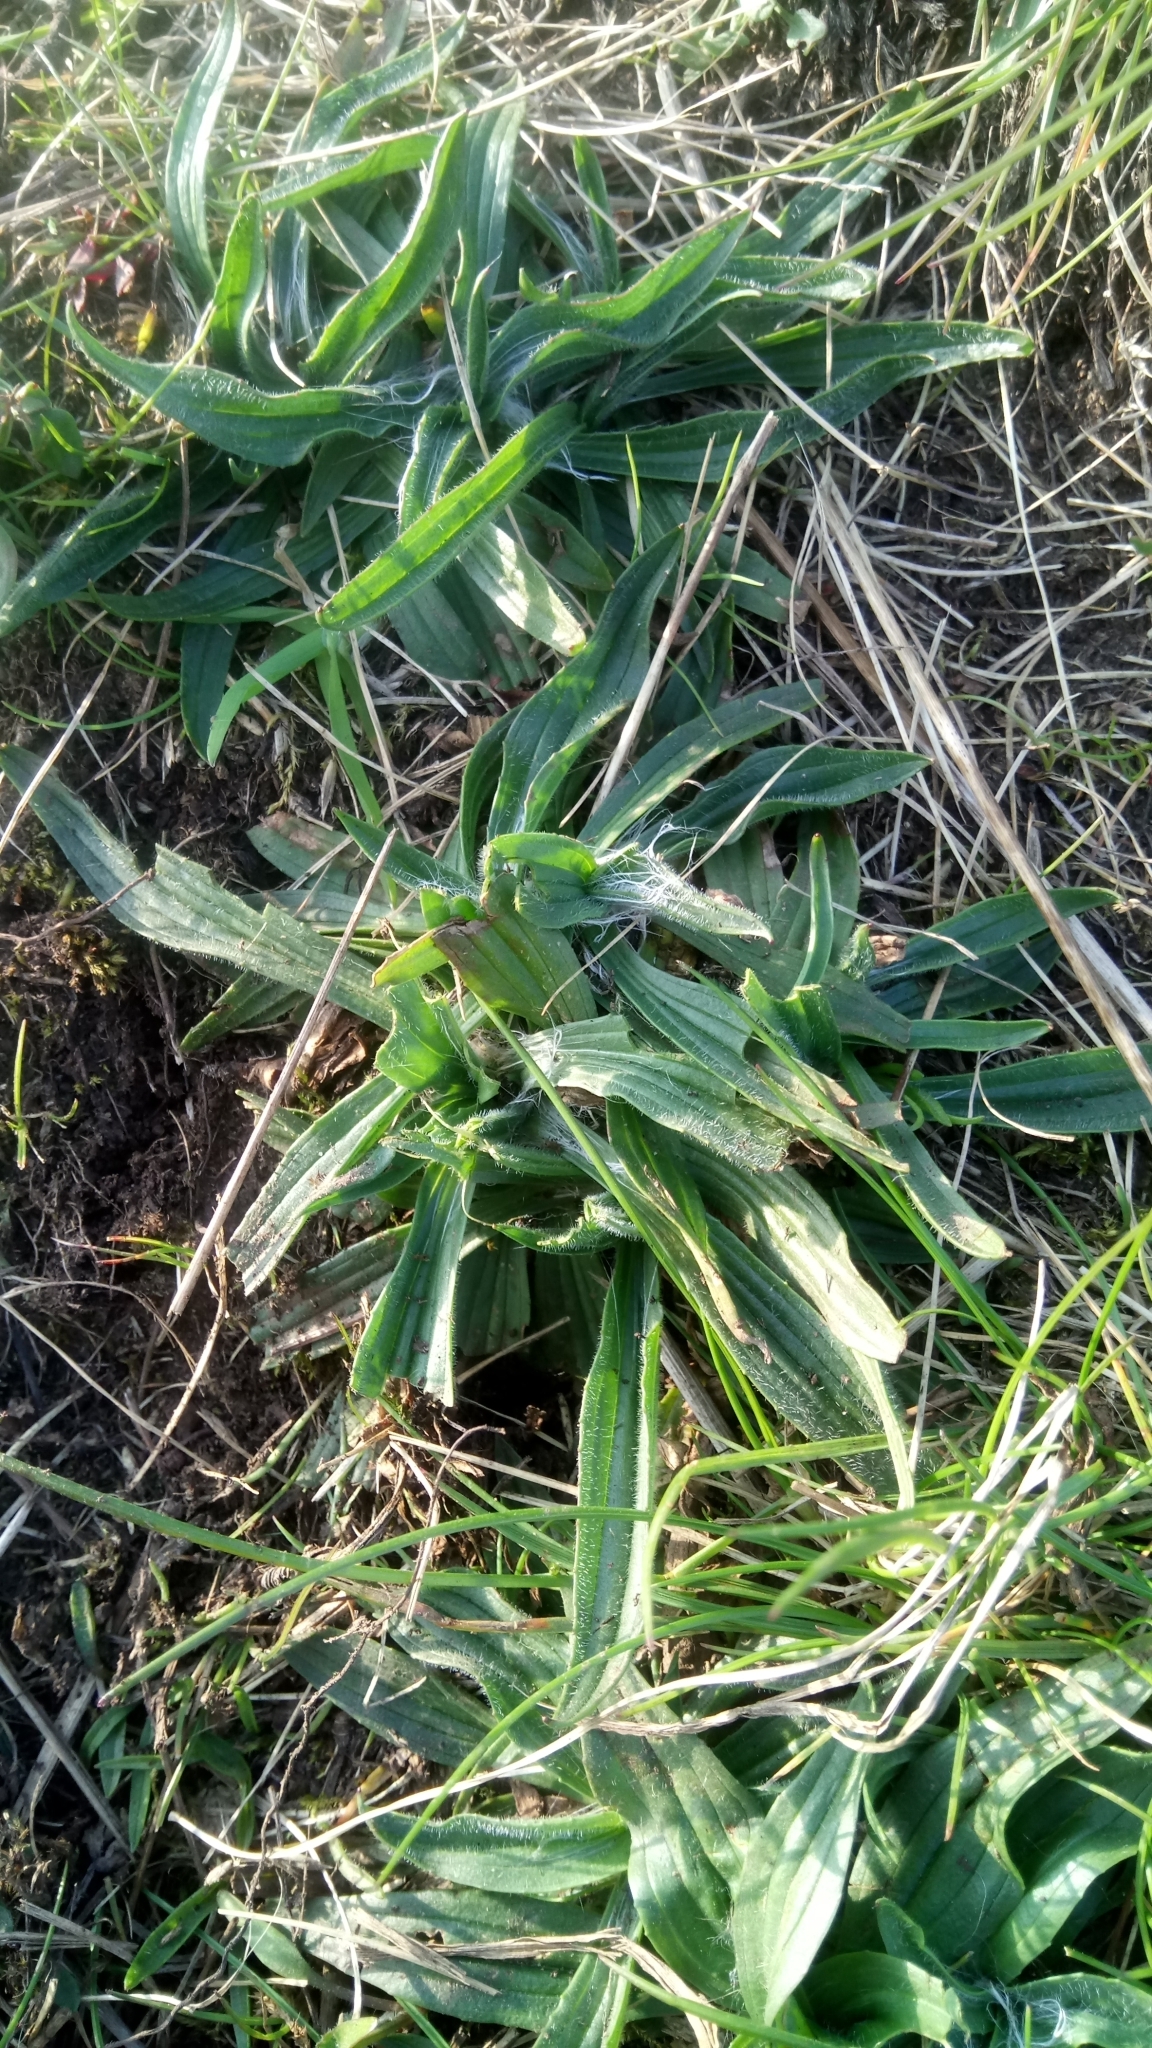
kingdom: Plantae
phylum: Tracheophyta
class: Magnoliopsida
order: Lamiales
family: Plantaginaceae
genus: Plantago
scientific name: Plantago lanceolata
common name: Ribwort plantain
